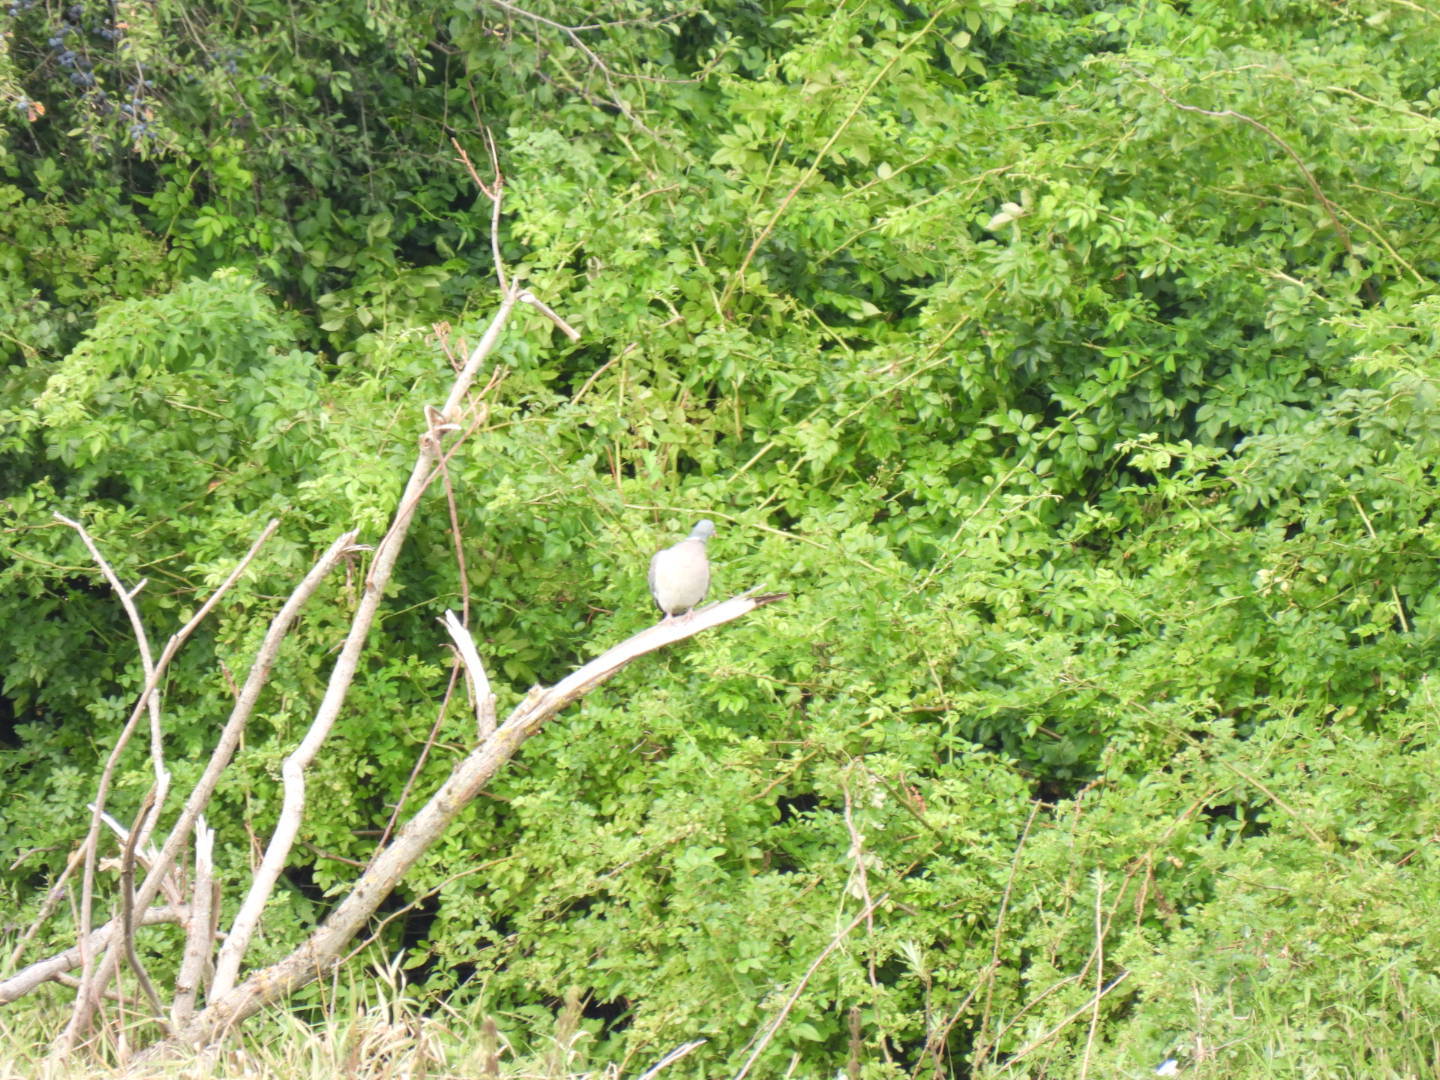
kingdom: Animalia
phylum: Chordata
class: Aves
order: Columbiformes
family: Columbidae
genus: Columba
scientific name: Columba palumbus
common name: Common wood pigeon
